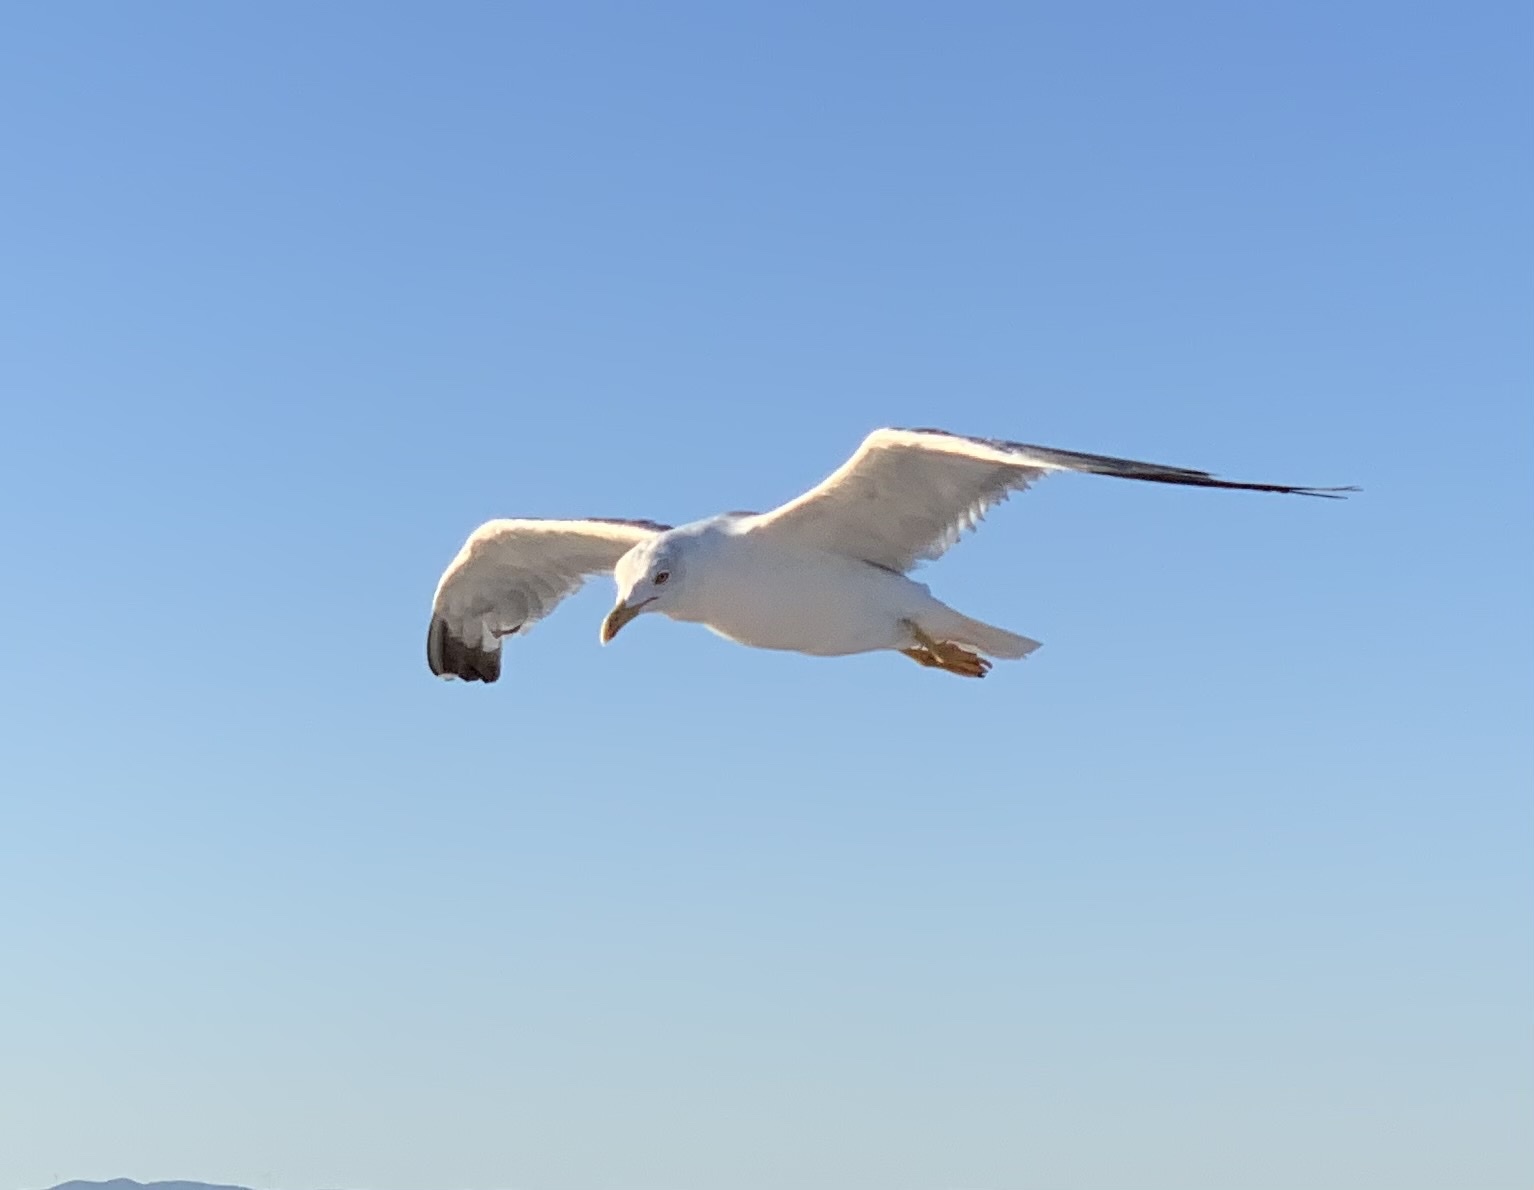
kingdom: Animalia
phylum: Chordata
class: Aves
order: Charadriiformes
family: Laridae
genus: Larus
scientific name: Larus michahellis
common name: Yellow-legged gull
